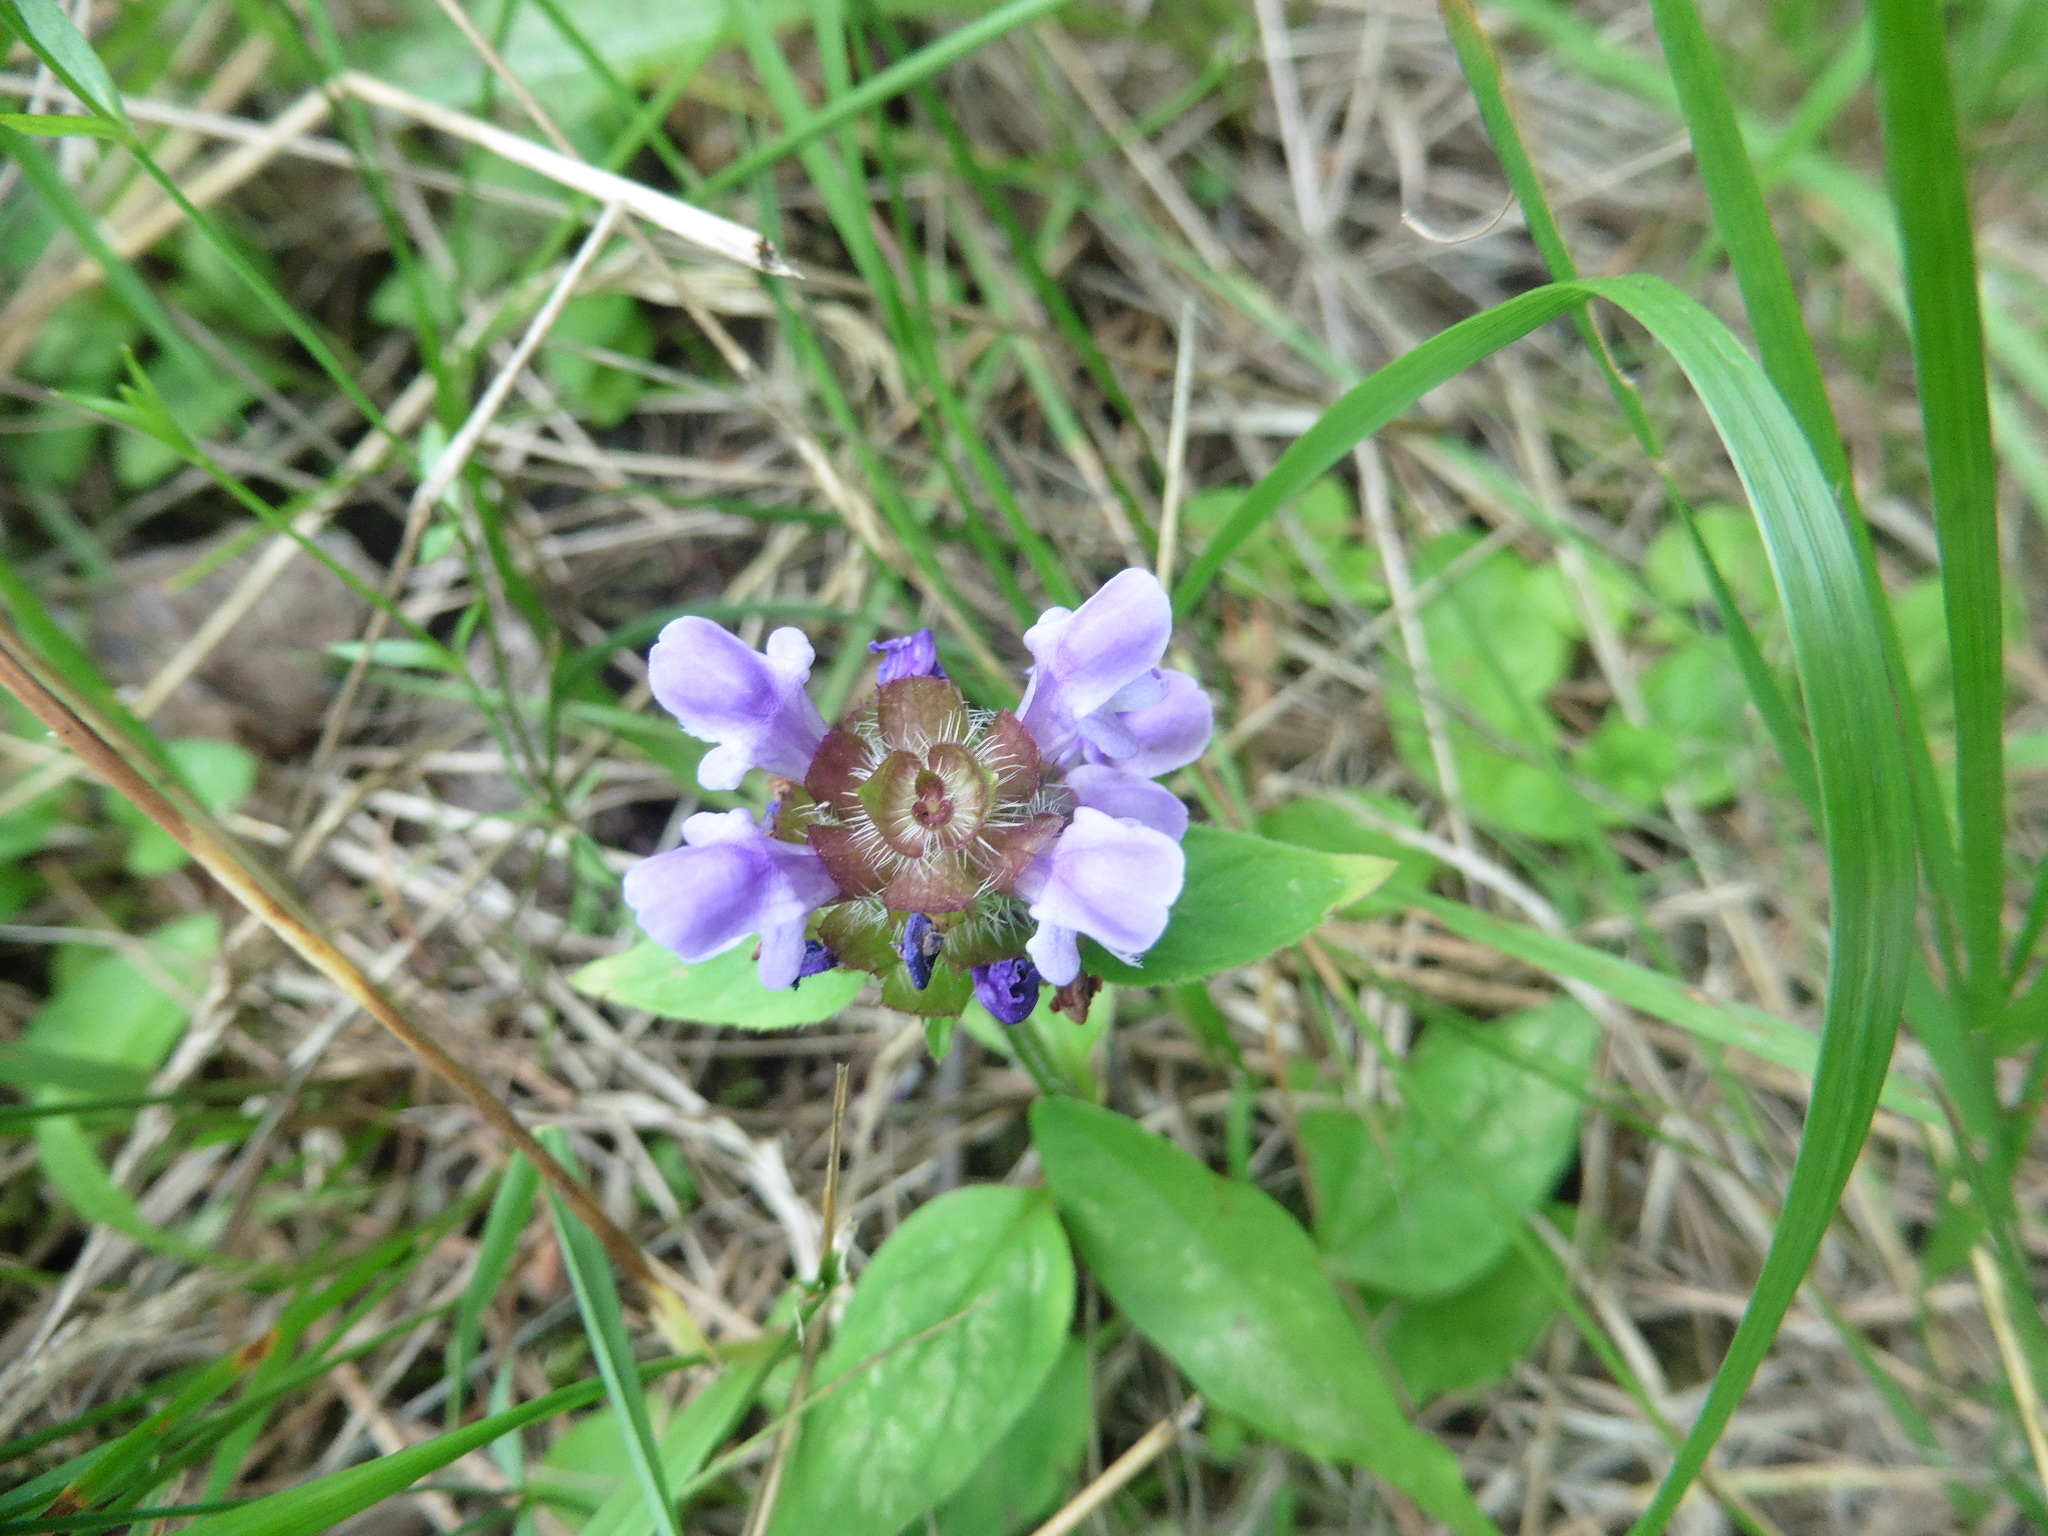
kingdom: Plantae
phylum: Tracheophyta
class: Magnoliopsida
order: Lamiales
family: Lamiaceae
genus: Prunella
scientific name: Prunella vulgaris
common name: Heal-all
